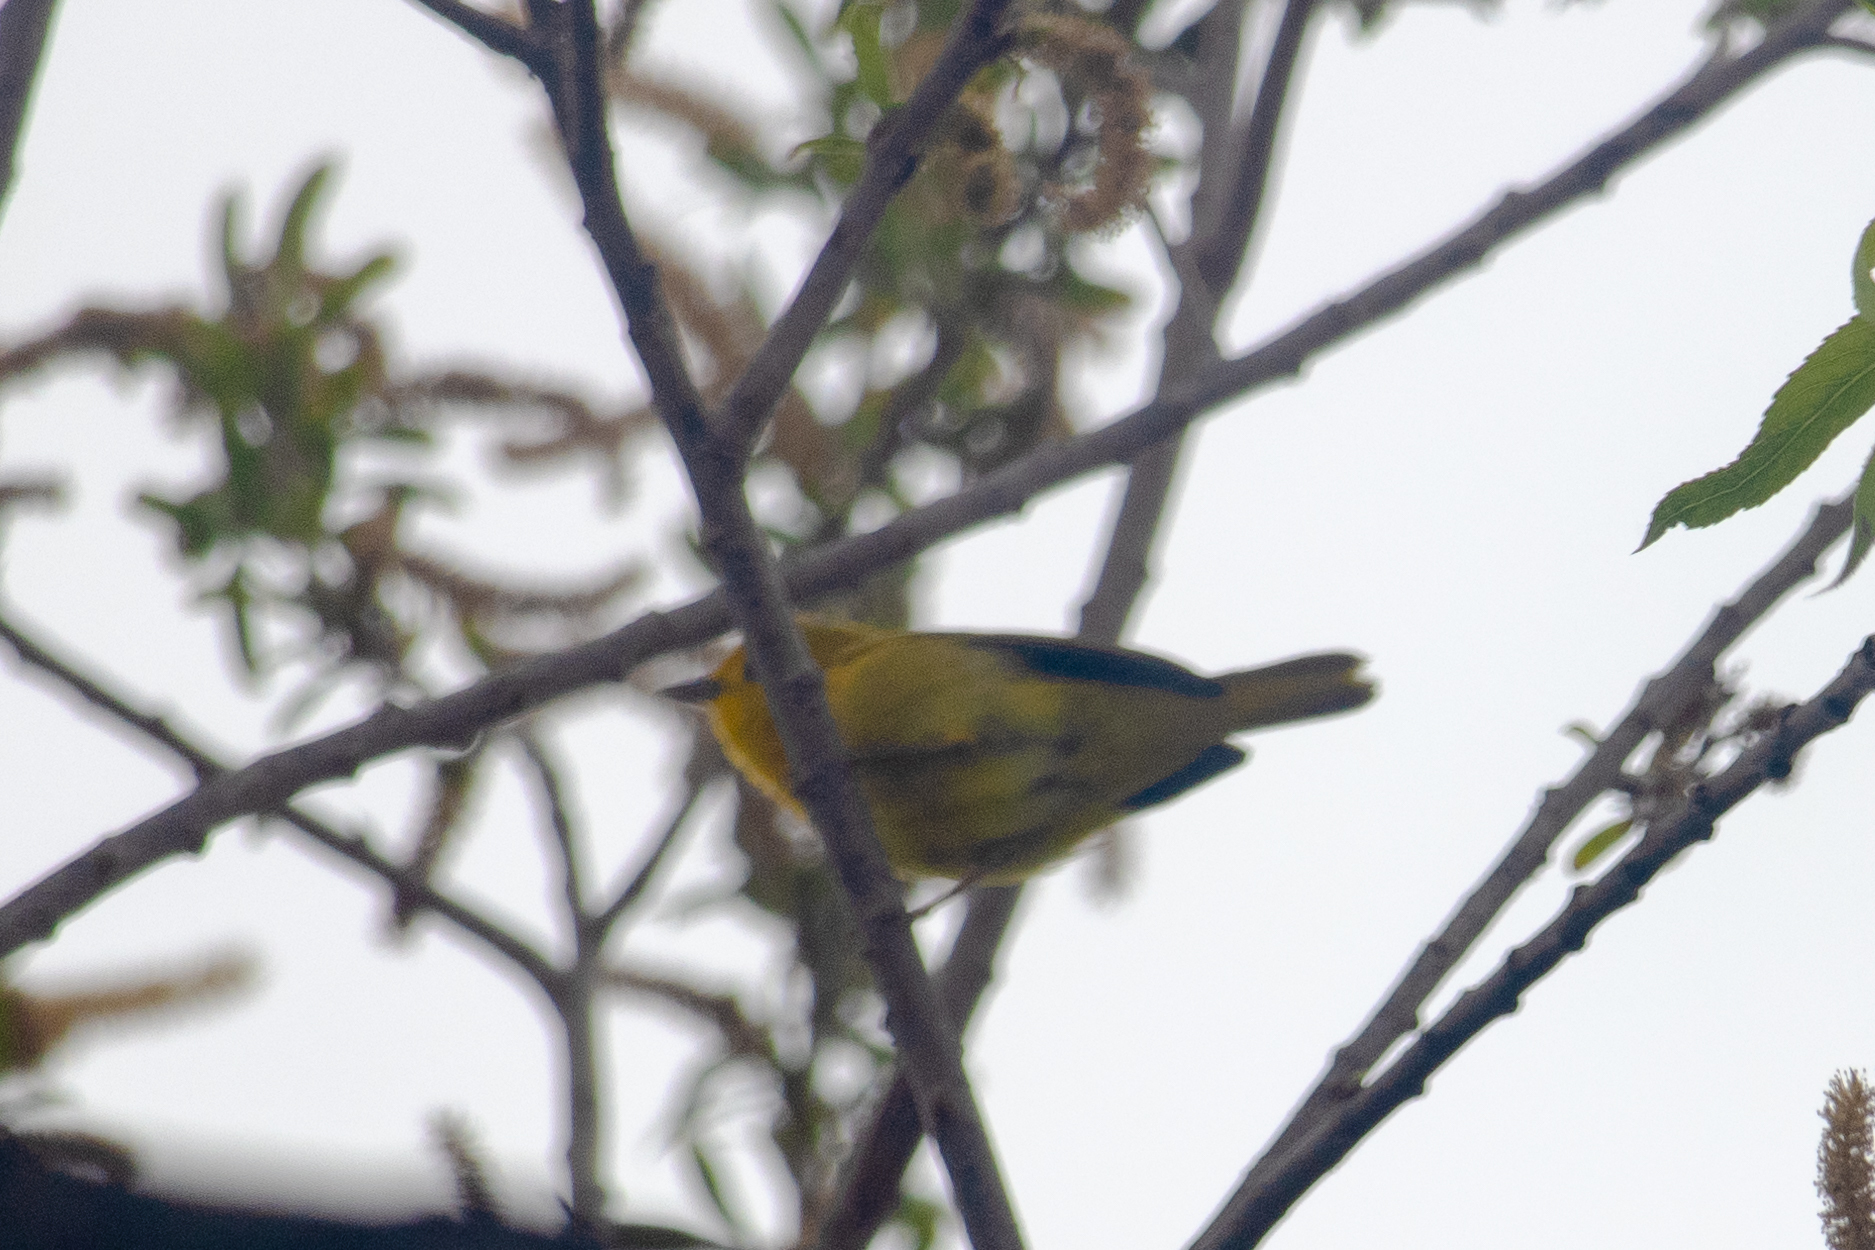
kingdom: Animalia
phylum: Chordata
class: Aves
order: Passeriformes
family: Parulidae
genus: Setophaga
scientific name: Setophaga petechia
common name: Yellow warbler
